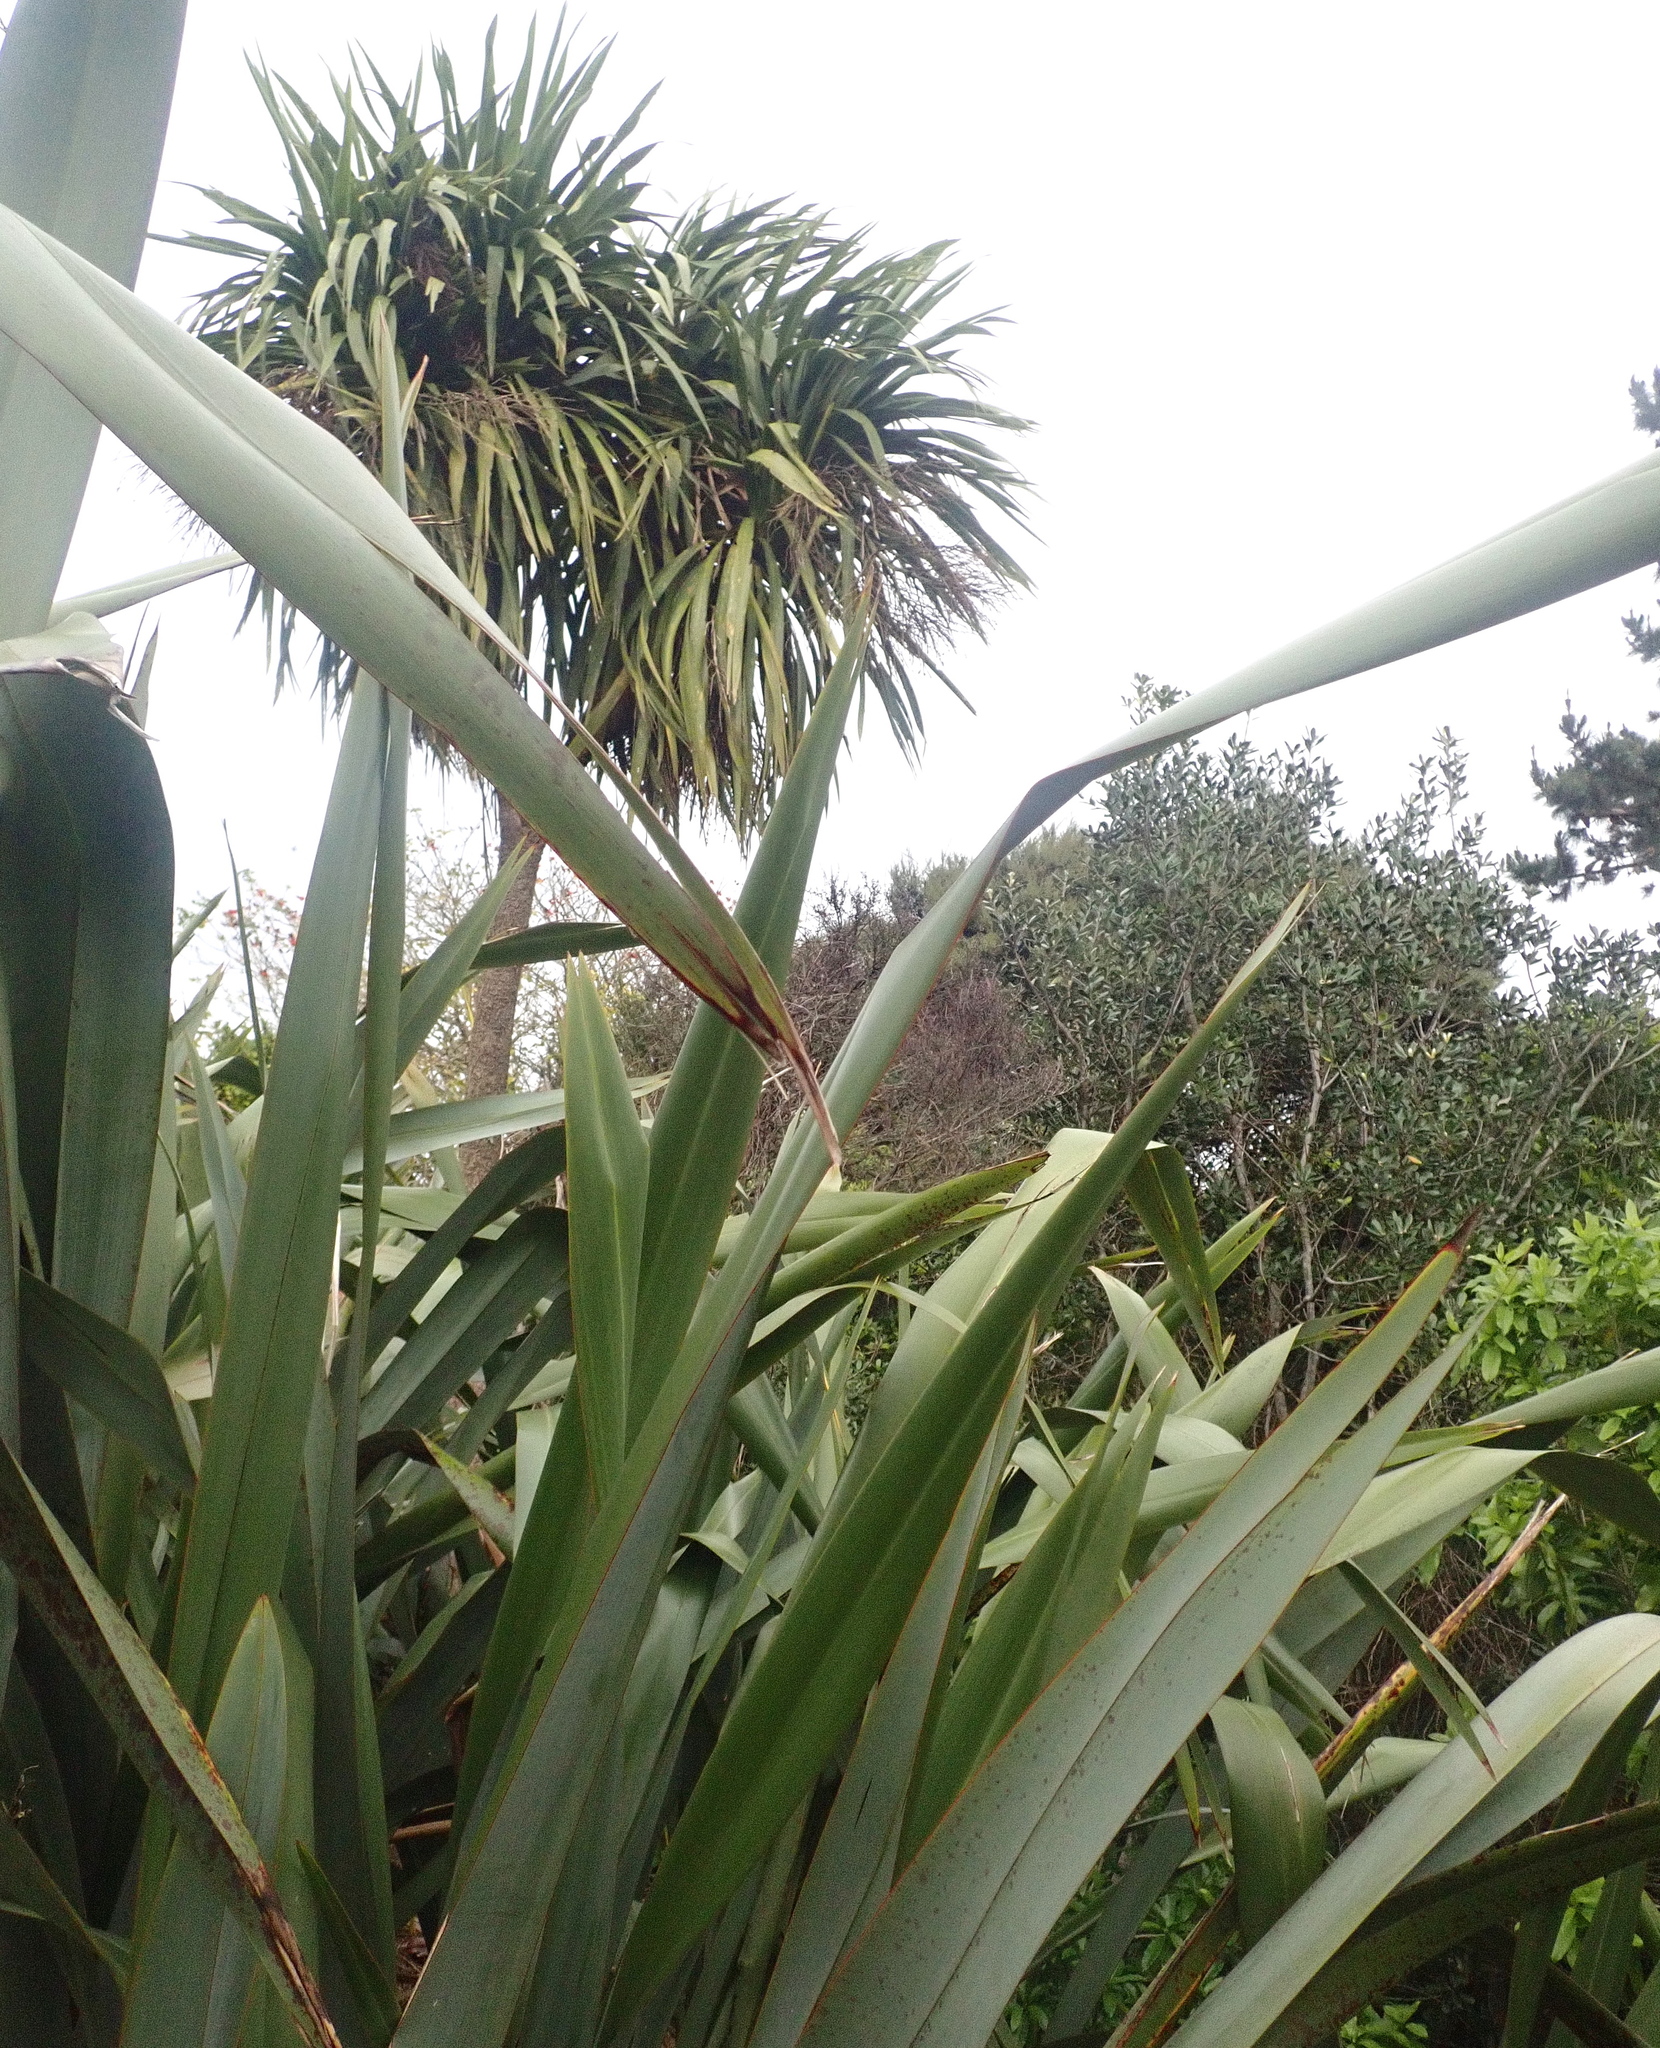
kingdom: Plantae
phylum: Tracheophyta
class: Liliopsida
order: Asparagales
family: Asparagaceae
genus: Cordyline
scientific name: Cordyline australis
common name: Cabbage-palm
